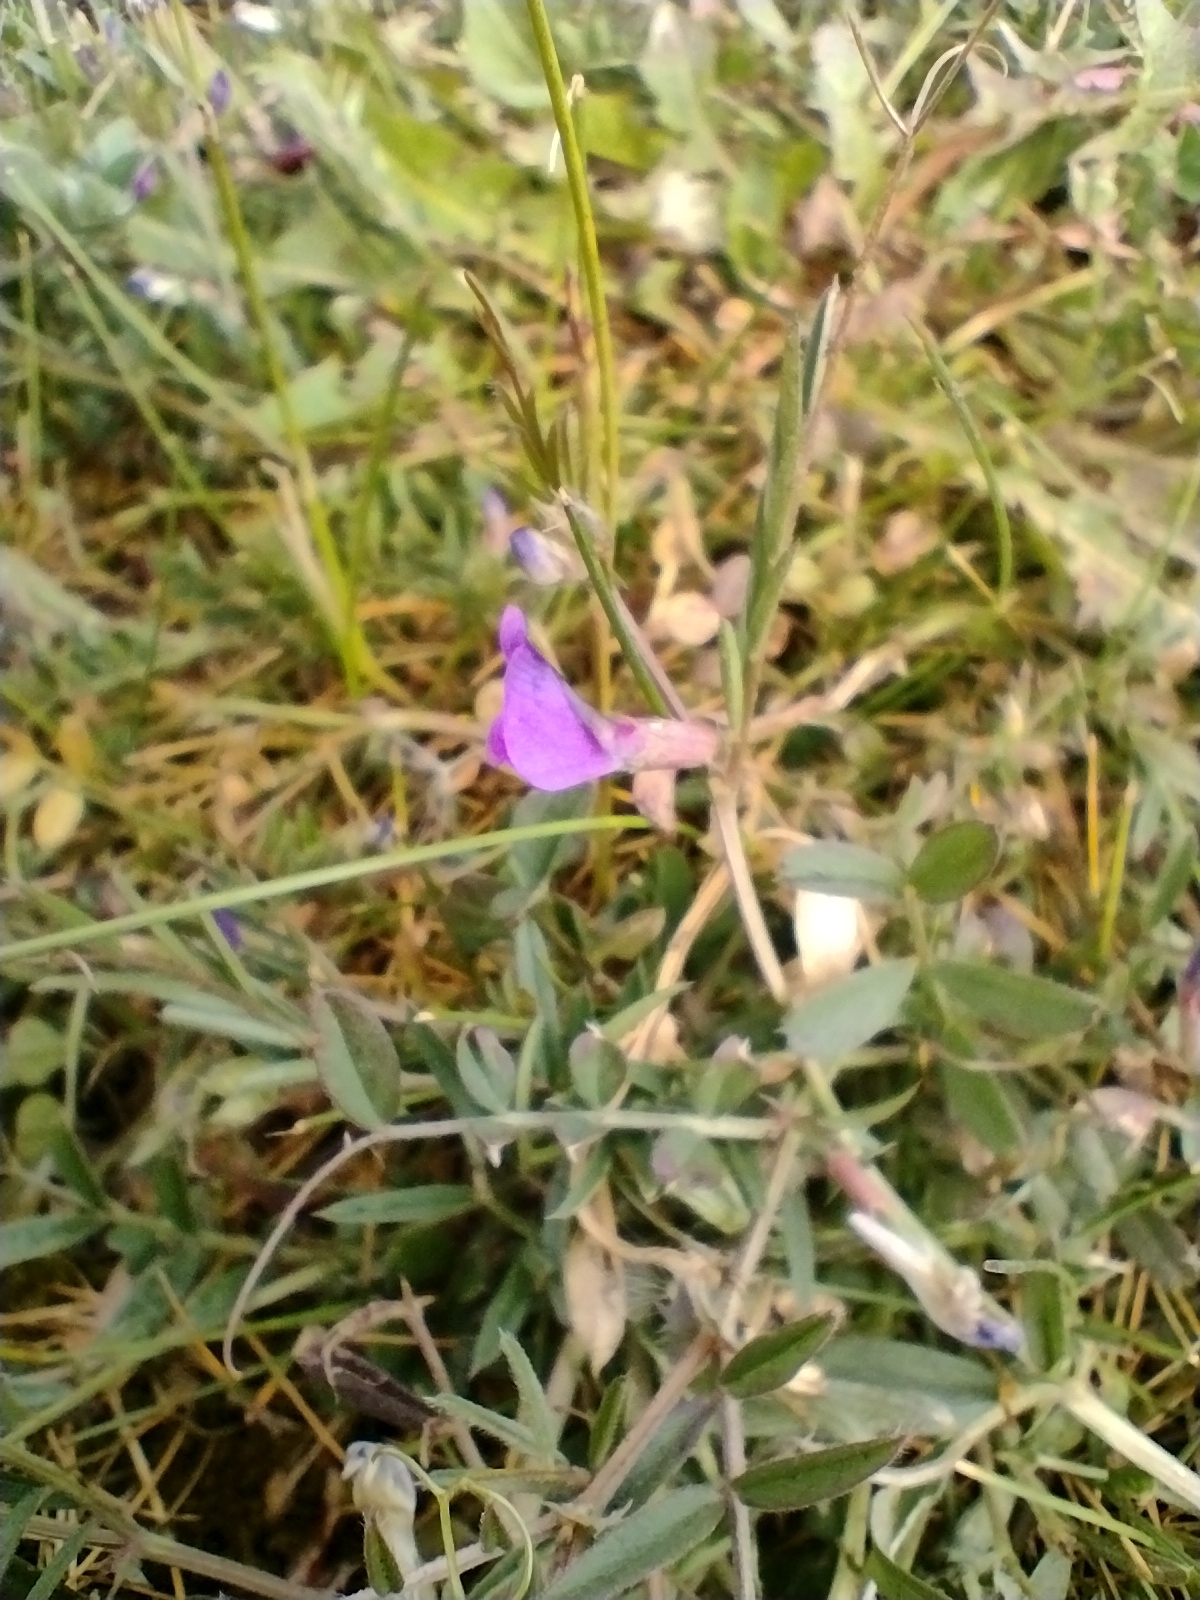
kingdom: Plantae
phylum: Tracheophyta
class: Magnoliopsida
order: Fabales
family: Fabaceae
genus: Vicia
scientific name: Vicia sativa
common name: Garden vetch
